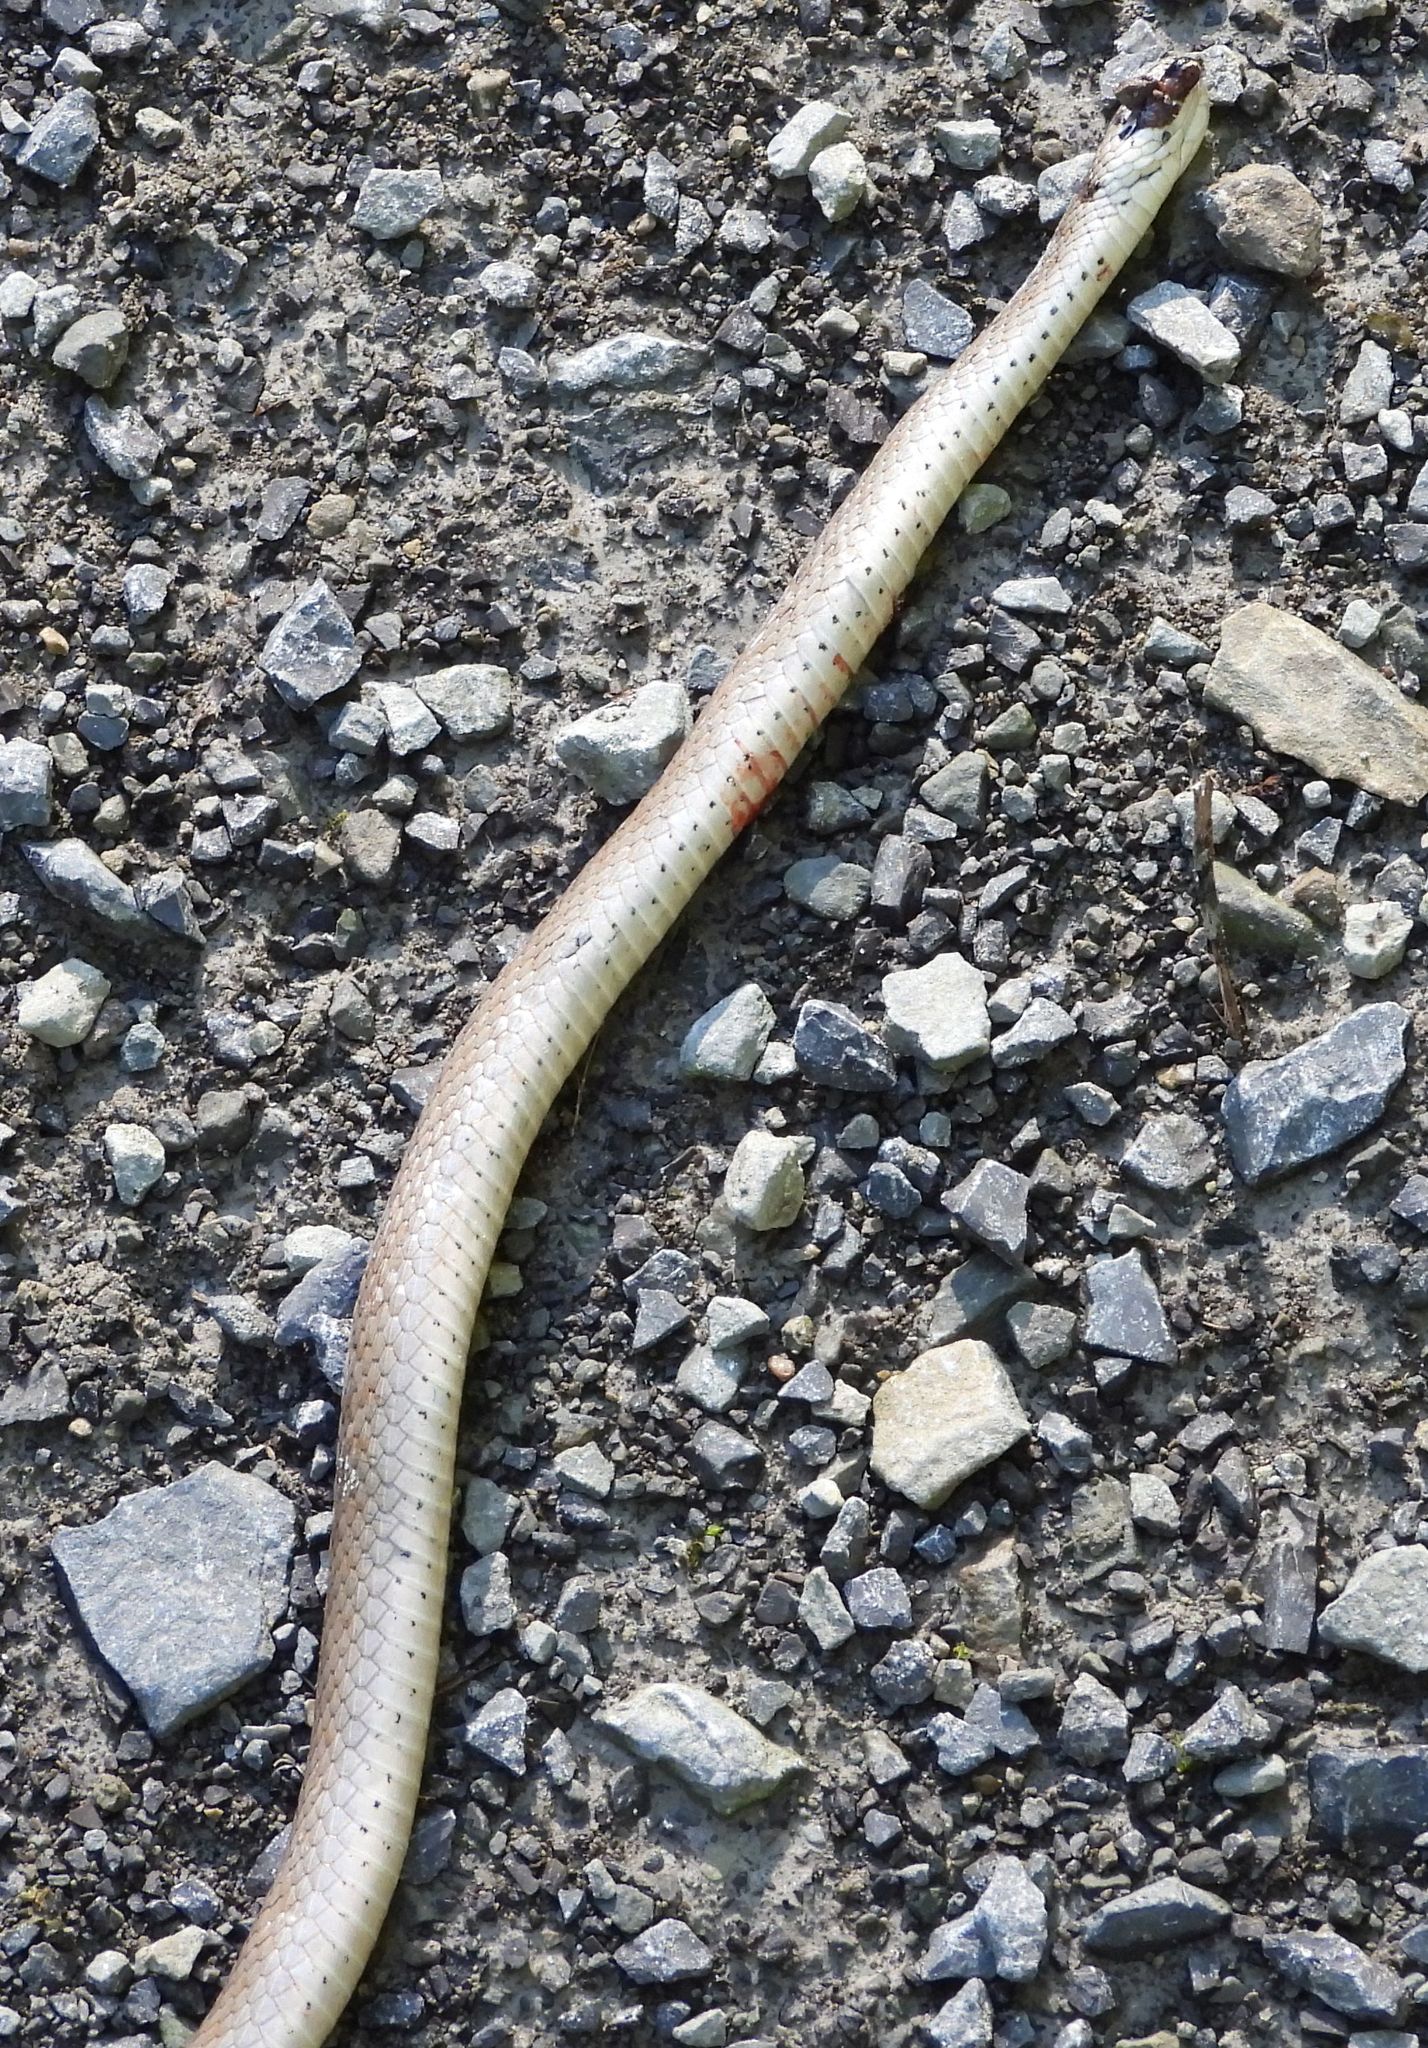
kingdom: Animalia
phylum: Chordata
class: Squamata
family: Colubridae
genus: Storeria
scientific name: Storeria dekayi
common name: (dekay’s) brown snake
